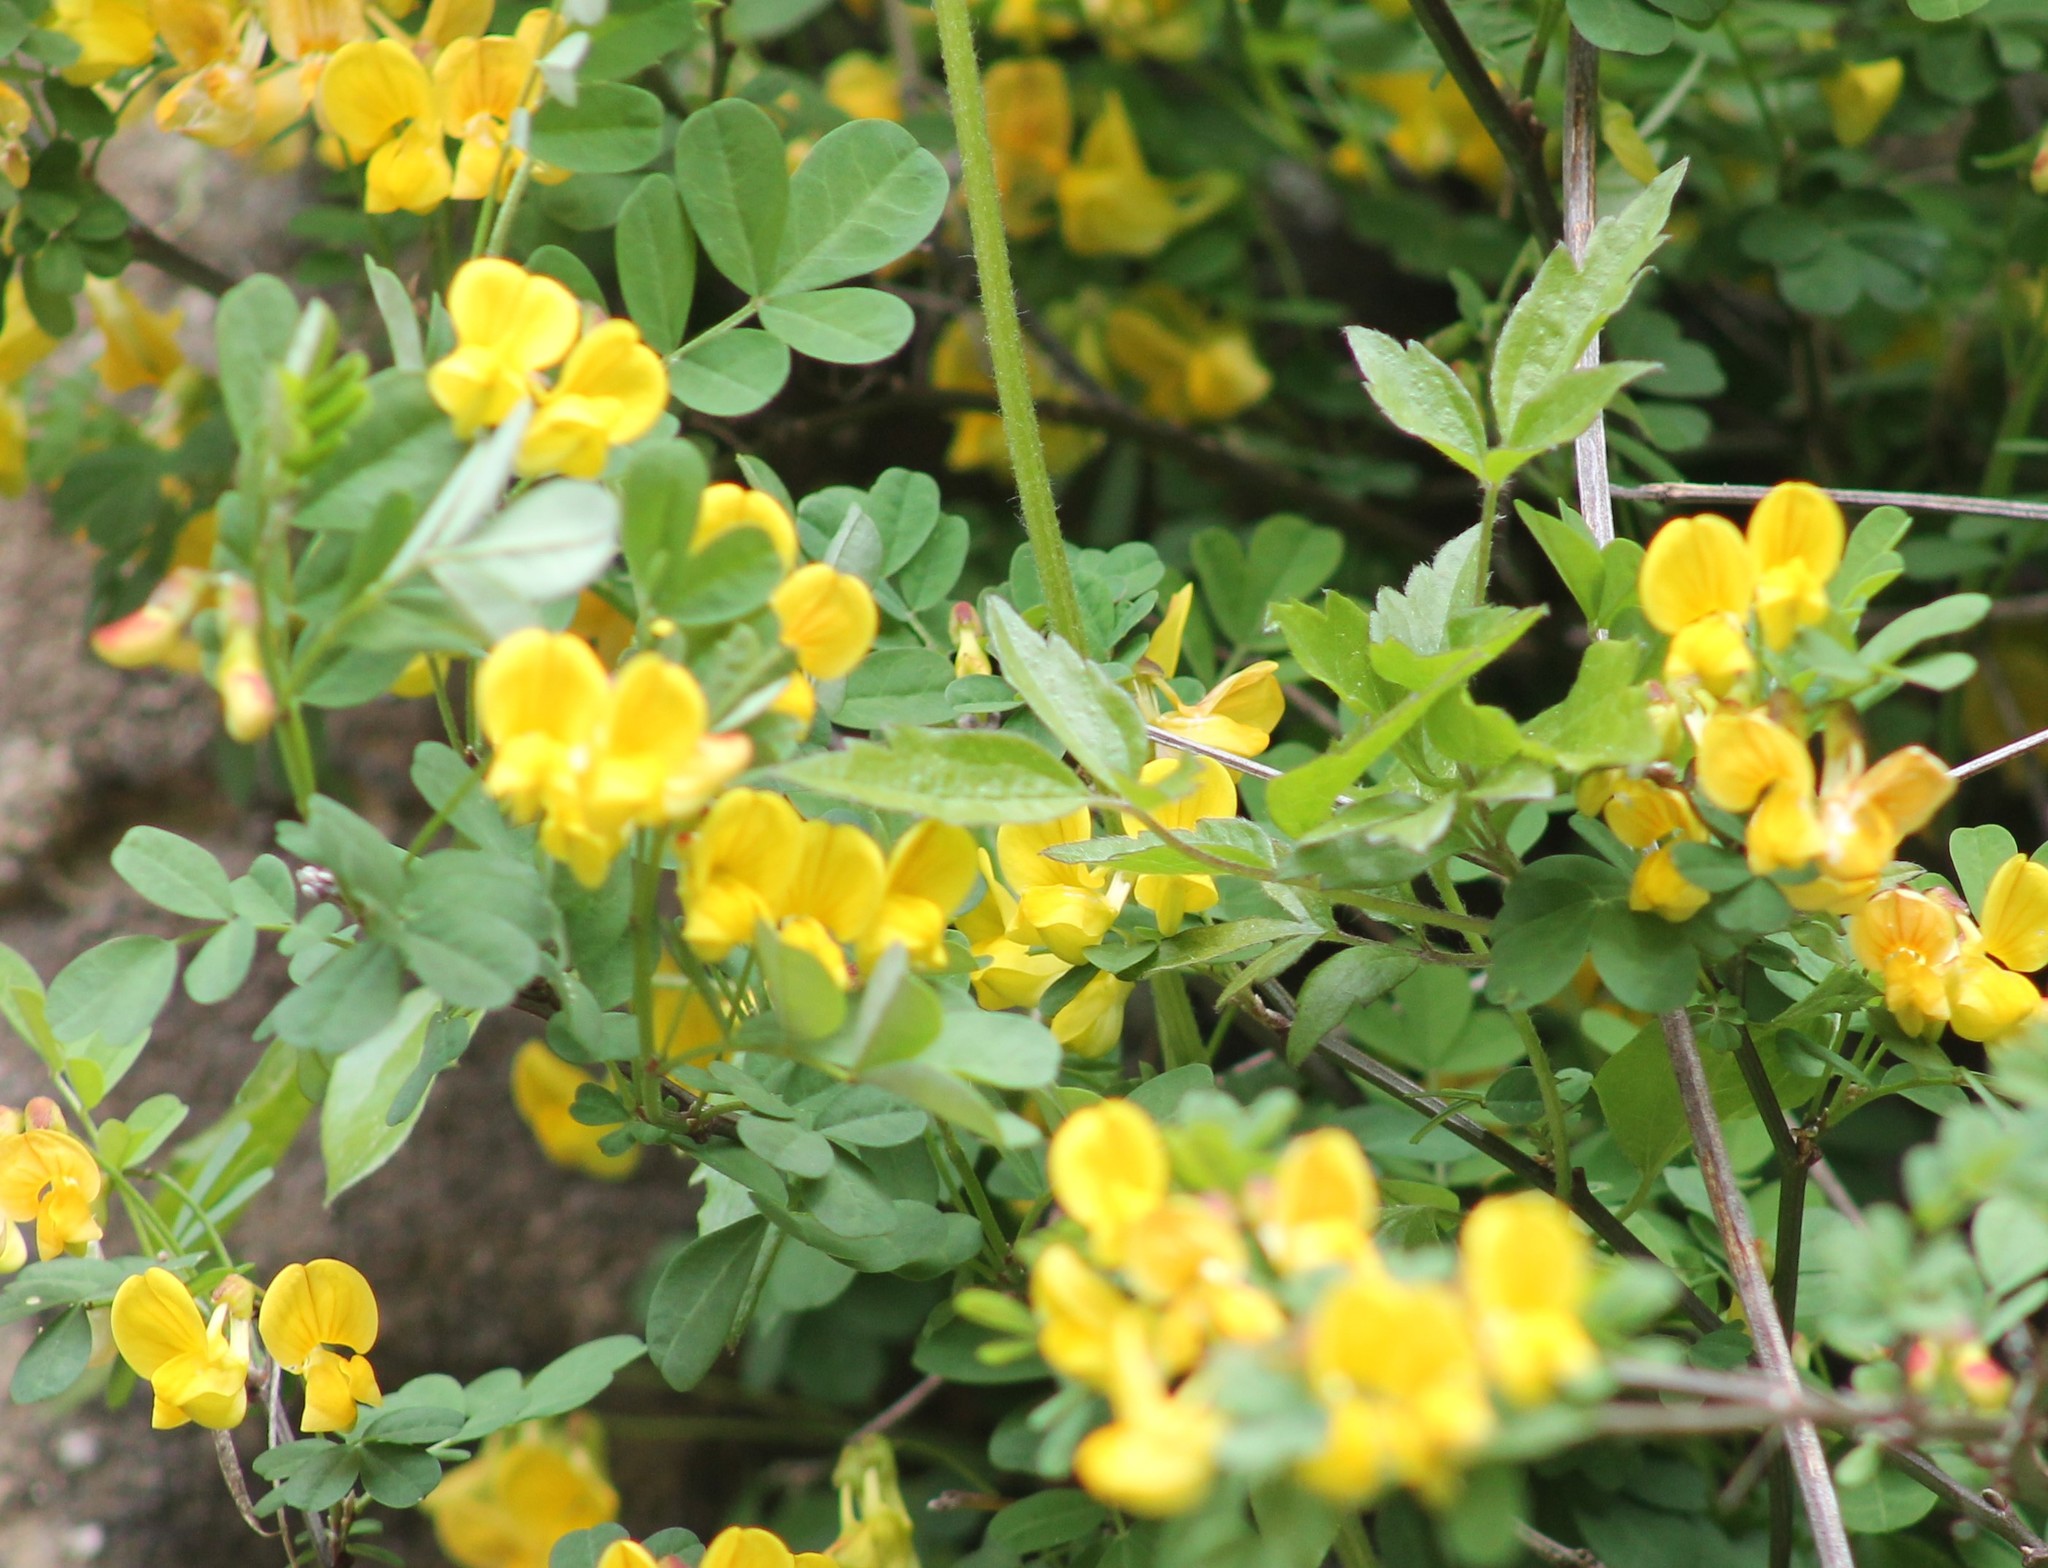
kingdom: Plantae
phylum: Tracheophyta
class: Magnoliopsida
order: Fabales
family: Fabaceae
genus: Hippocrepis
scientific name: Hippocrepis emerus
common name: Scorpion senna
